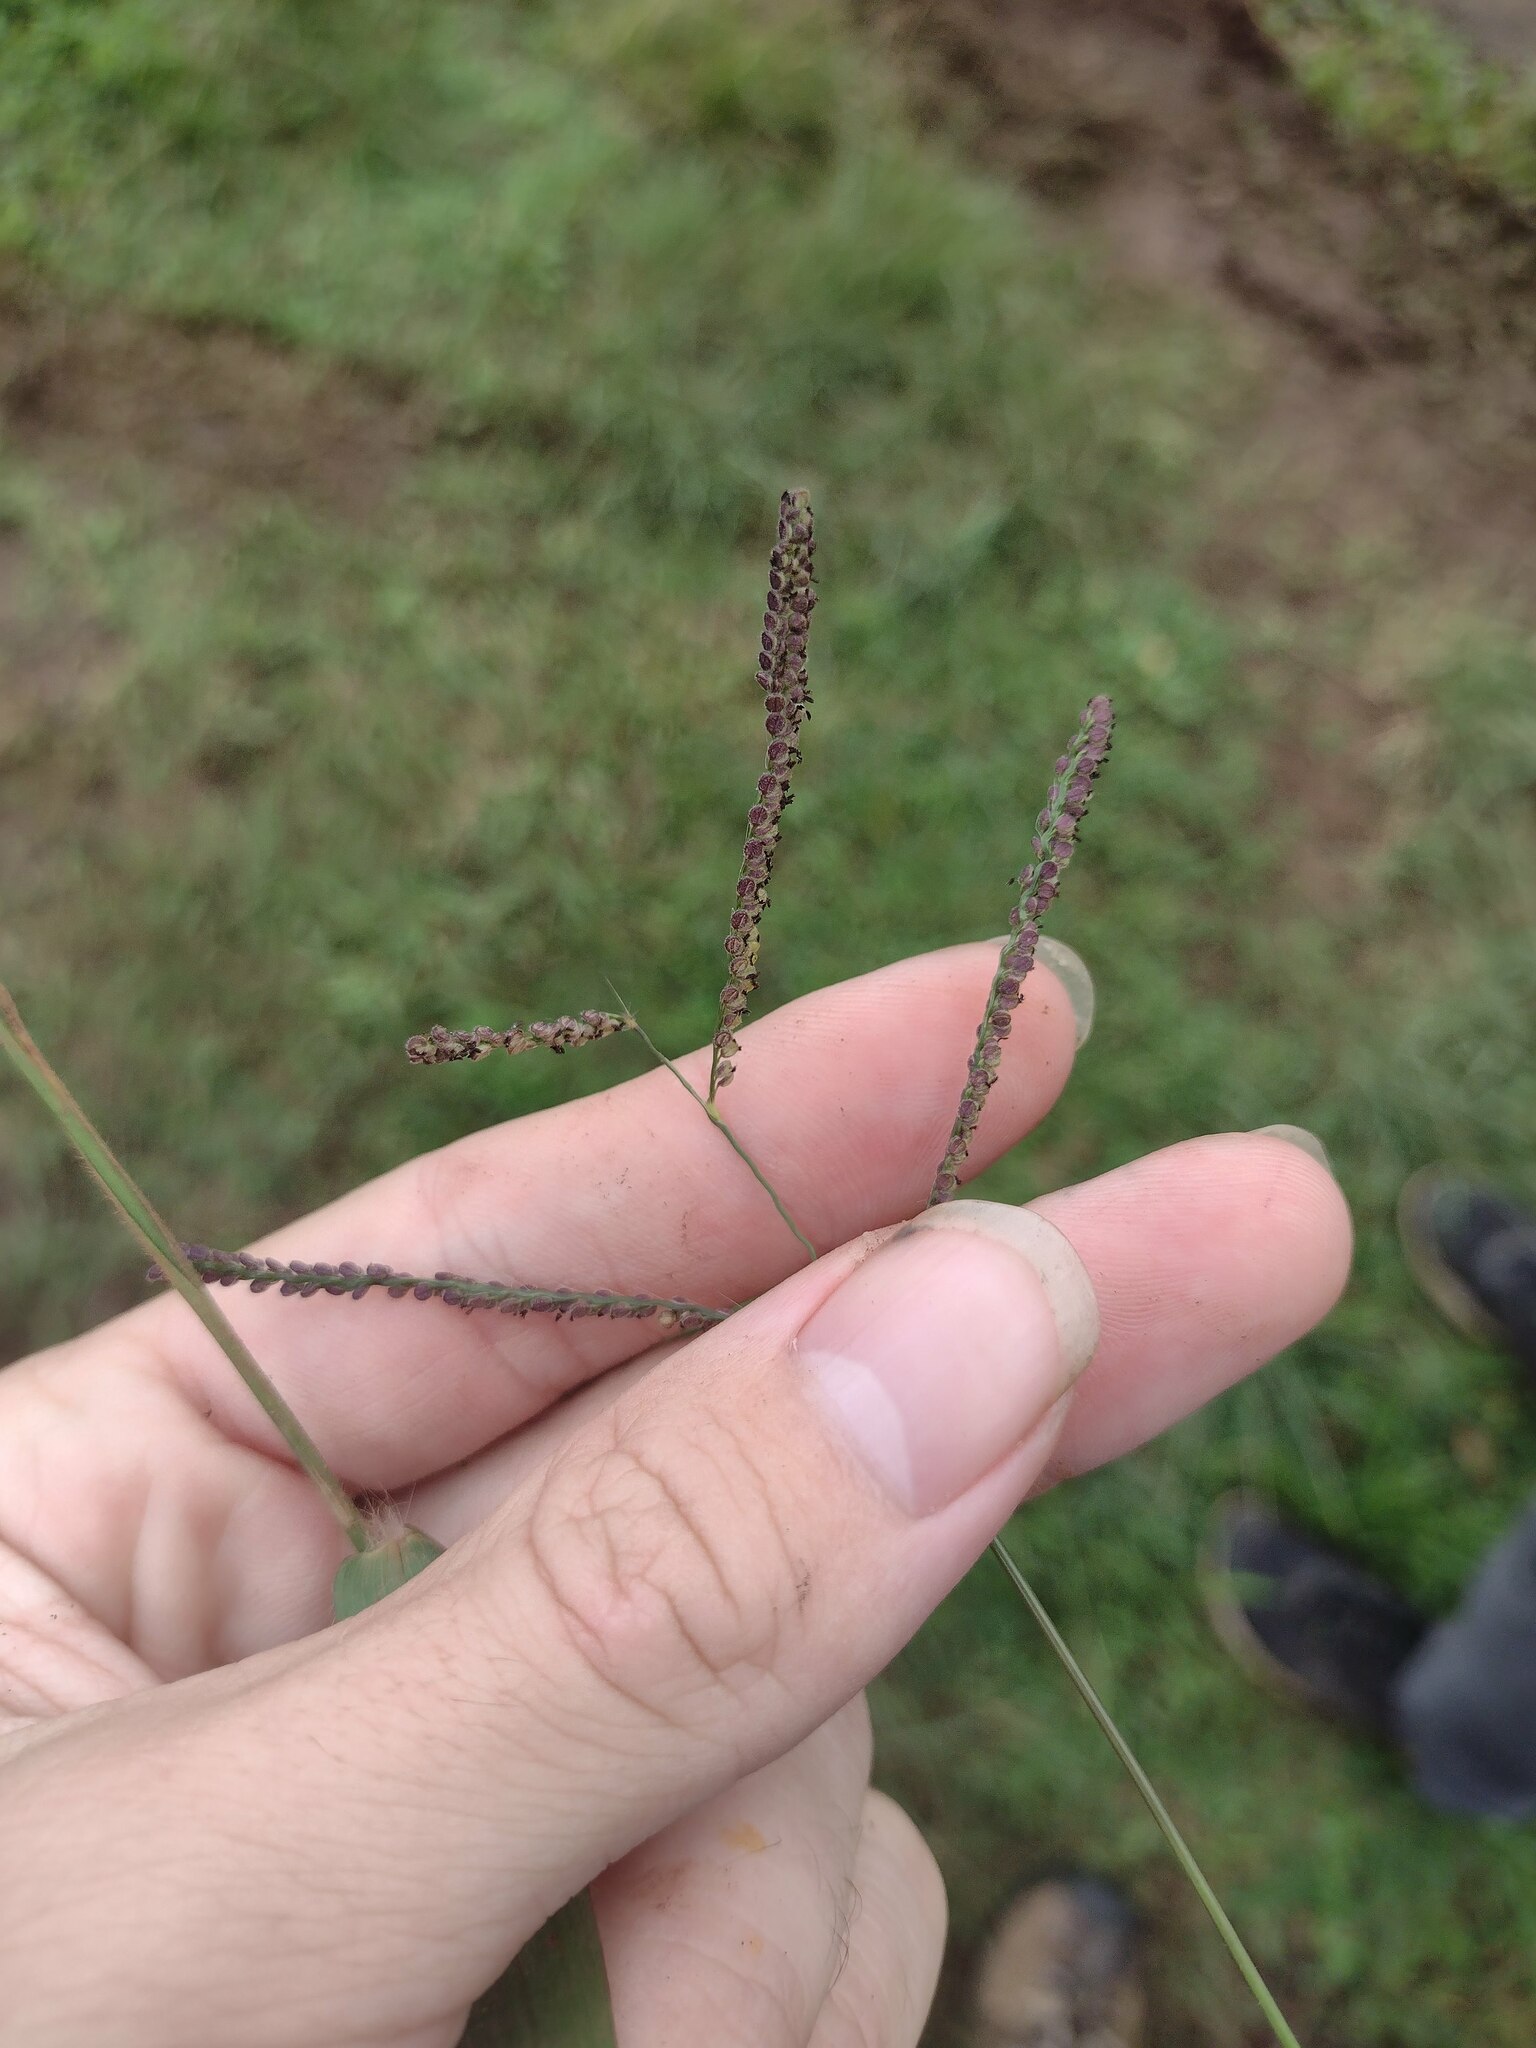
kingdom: Plantae
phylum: Tracheophyta
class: Liliopsida
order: Poales
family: Poaceae
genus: Paspalum
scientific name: Paspalum paniculatum
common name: Arrocillo
